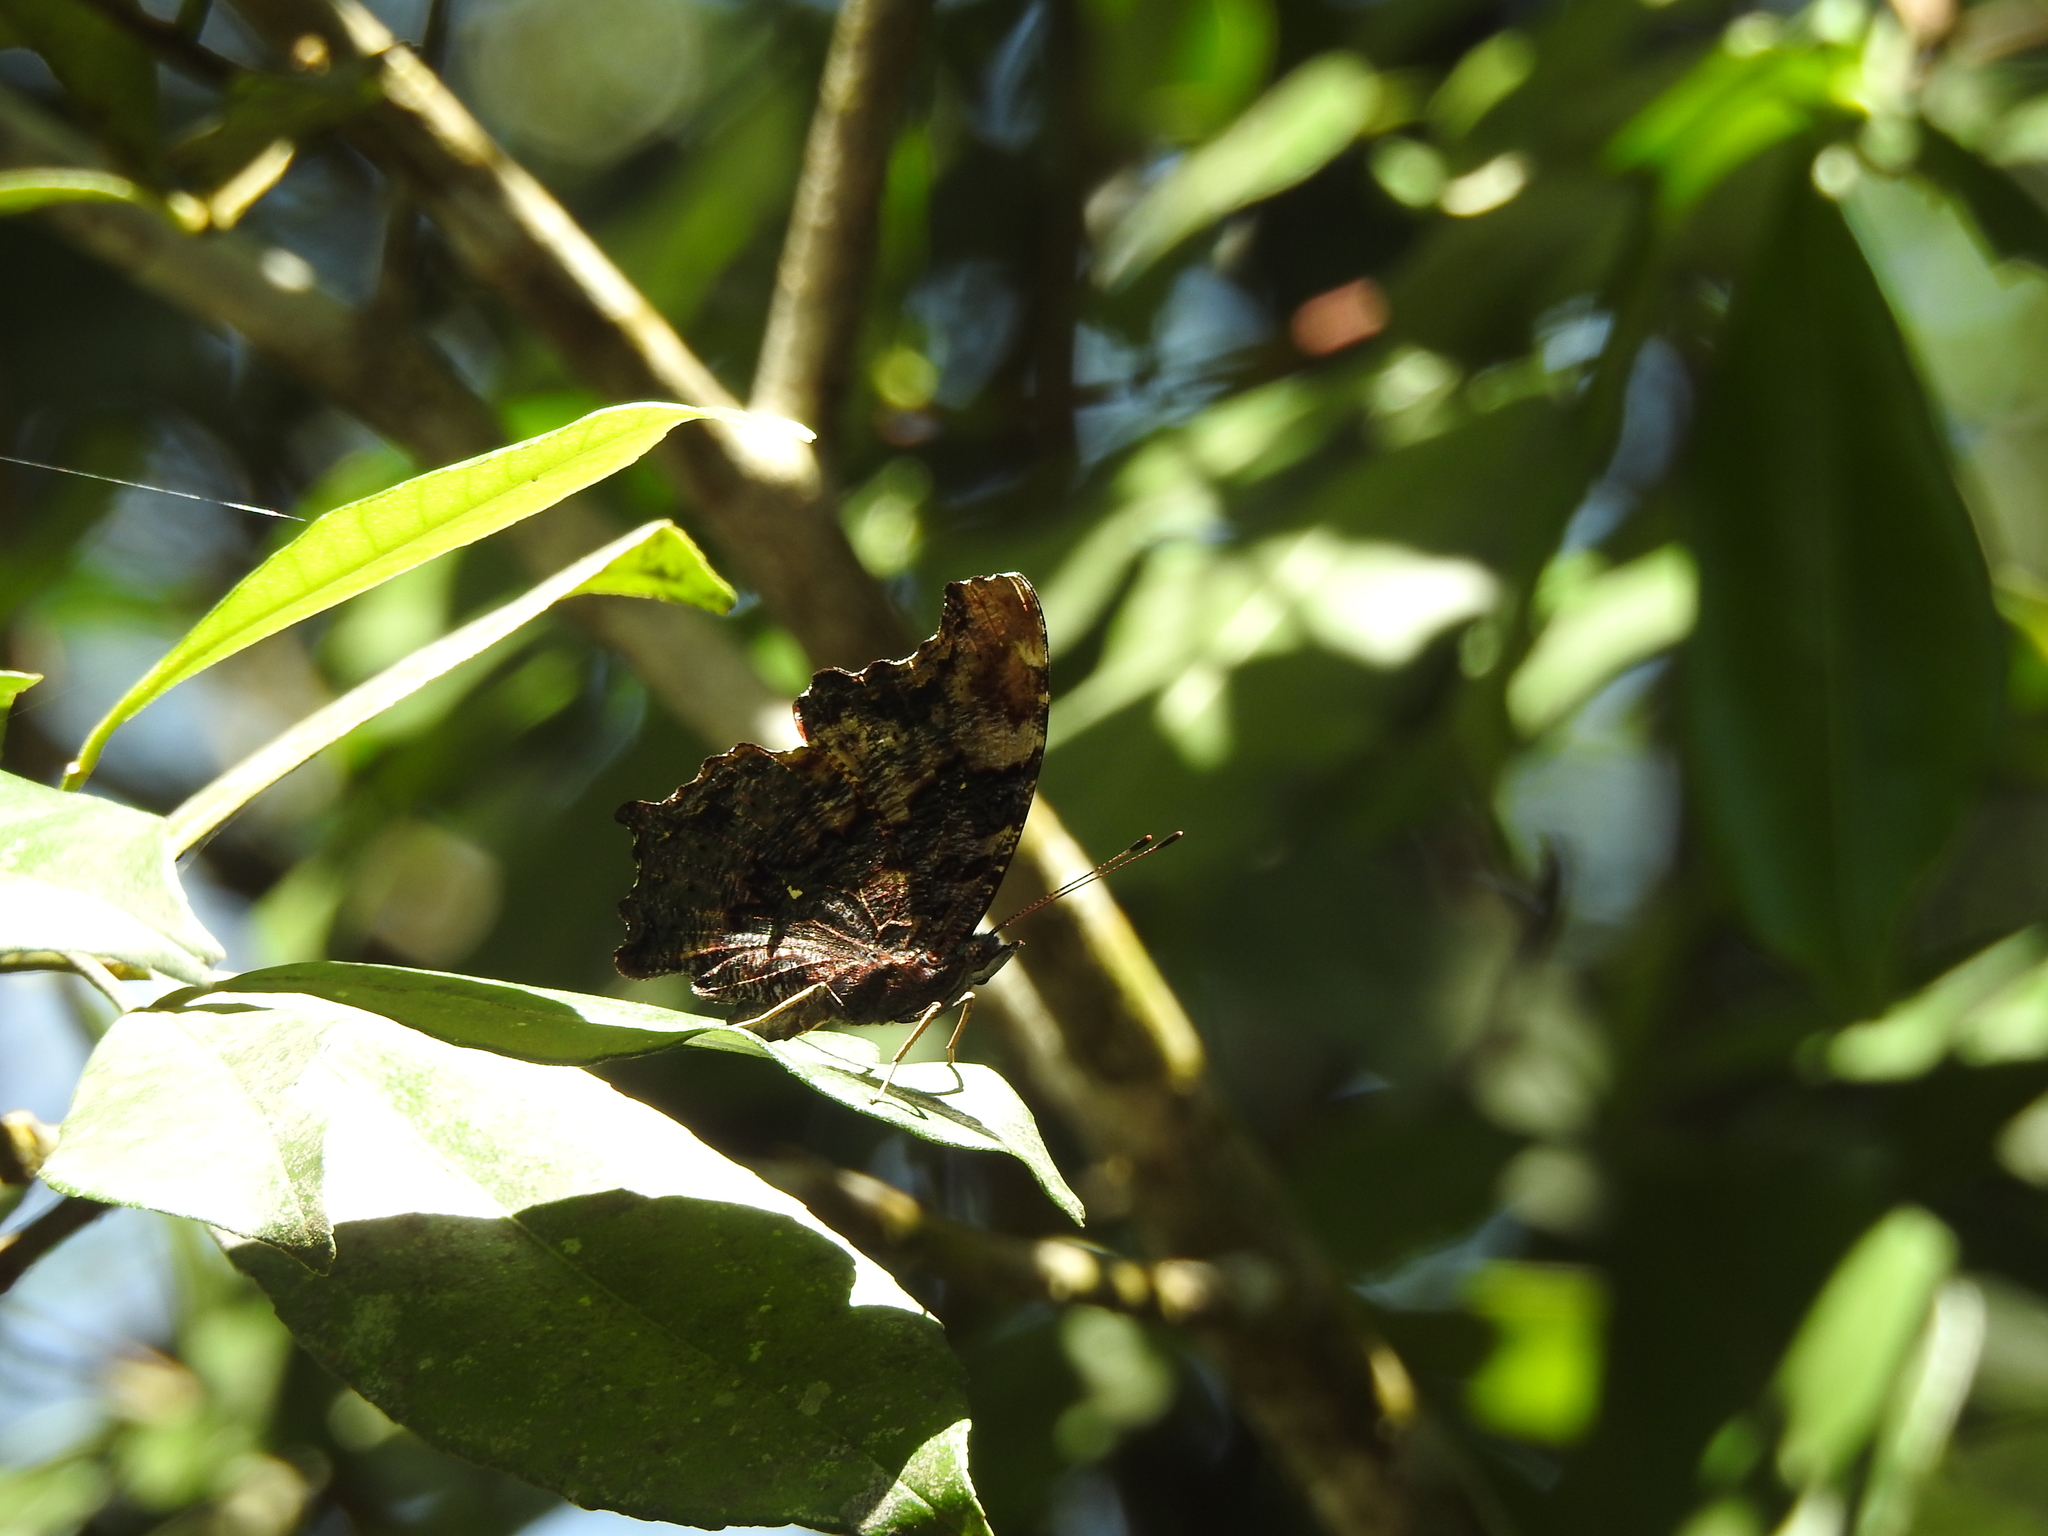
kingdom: Animalia
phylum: Arthropoda
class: Insecta
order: Lepidoptera
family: Nymphalidae
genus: Vanessa
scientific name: Vanessa Kaniska canace
